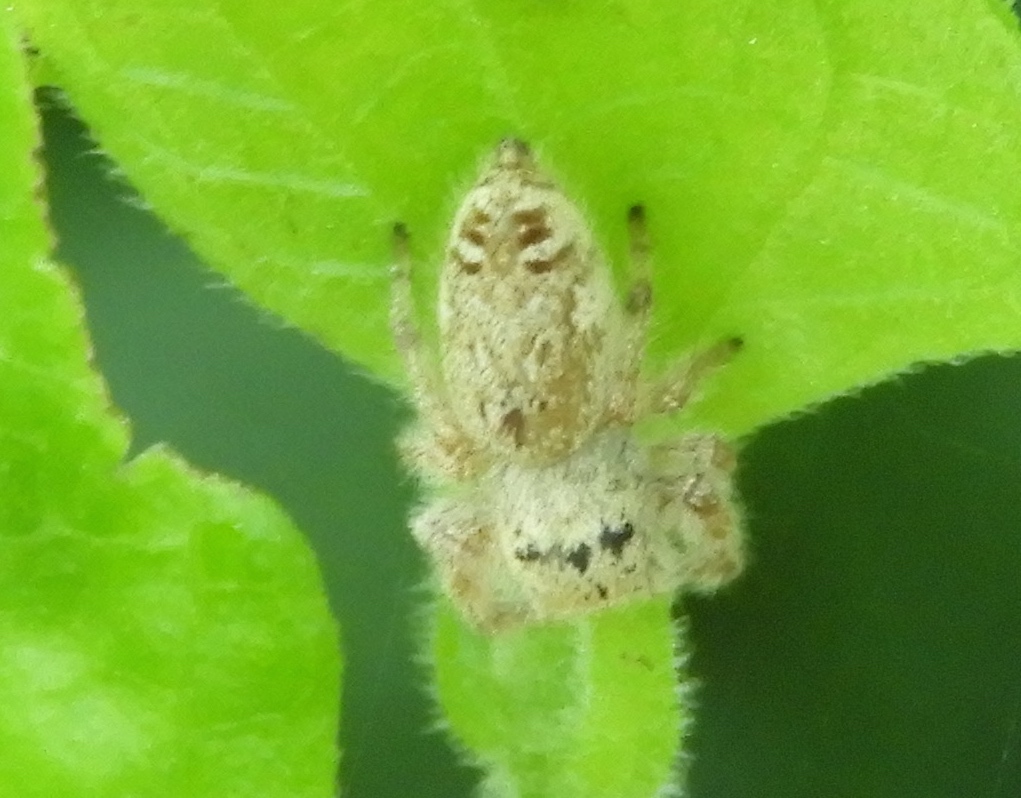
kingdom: Animalia
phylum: Arthropoda
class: Arachnida
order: Araneae
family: Salticidae
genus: Paraphidippus
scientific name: Paraphidippus fartilis
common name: Jumping spiders
